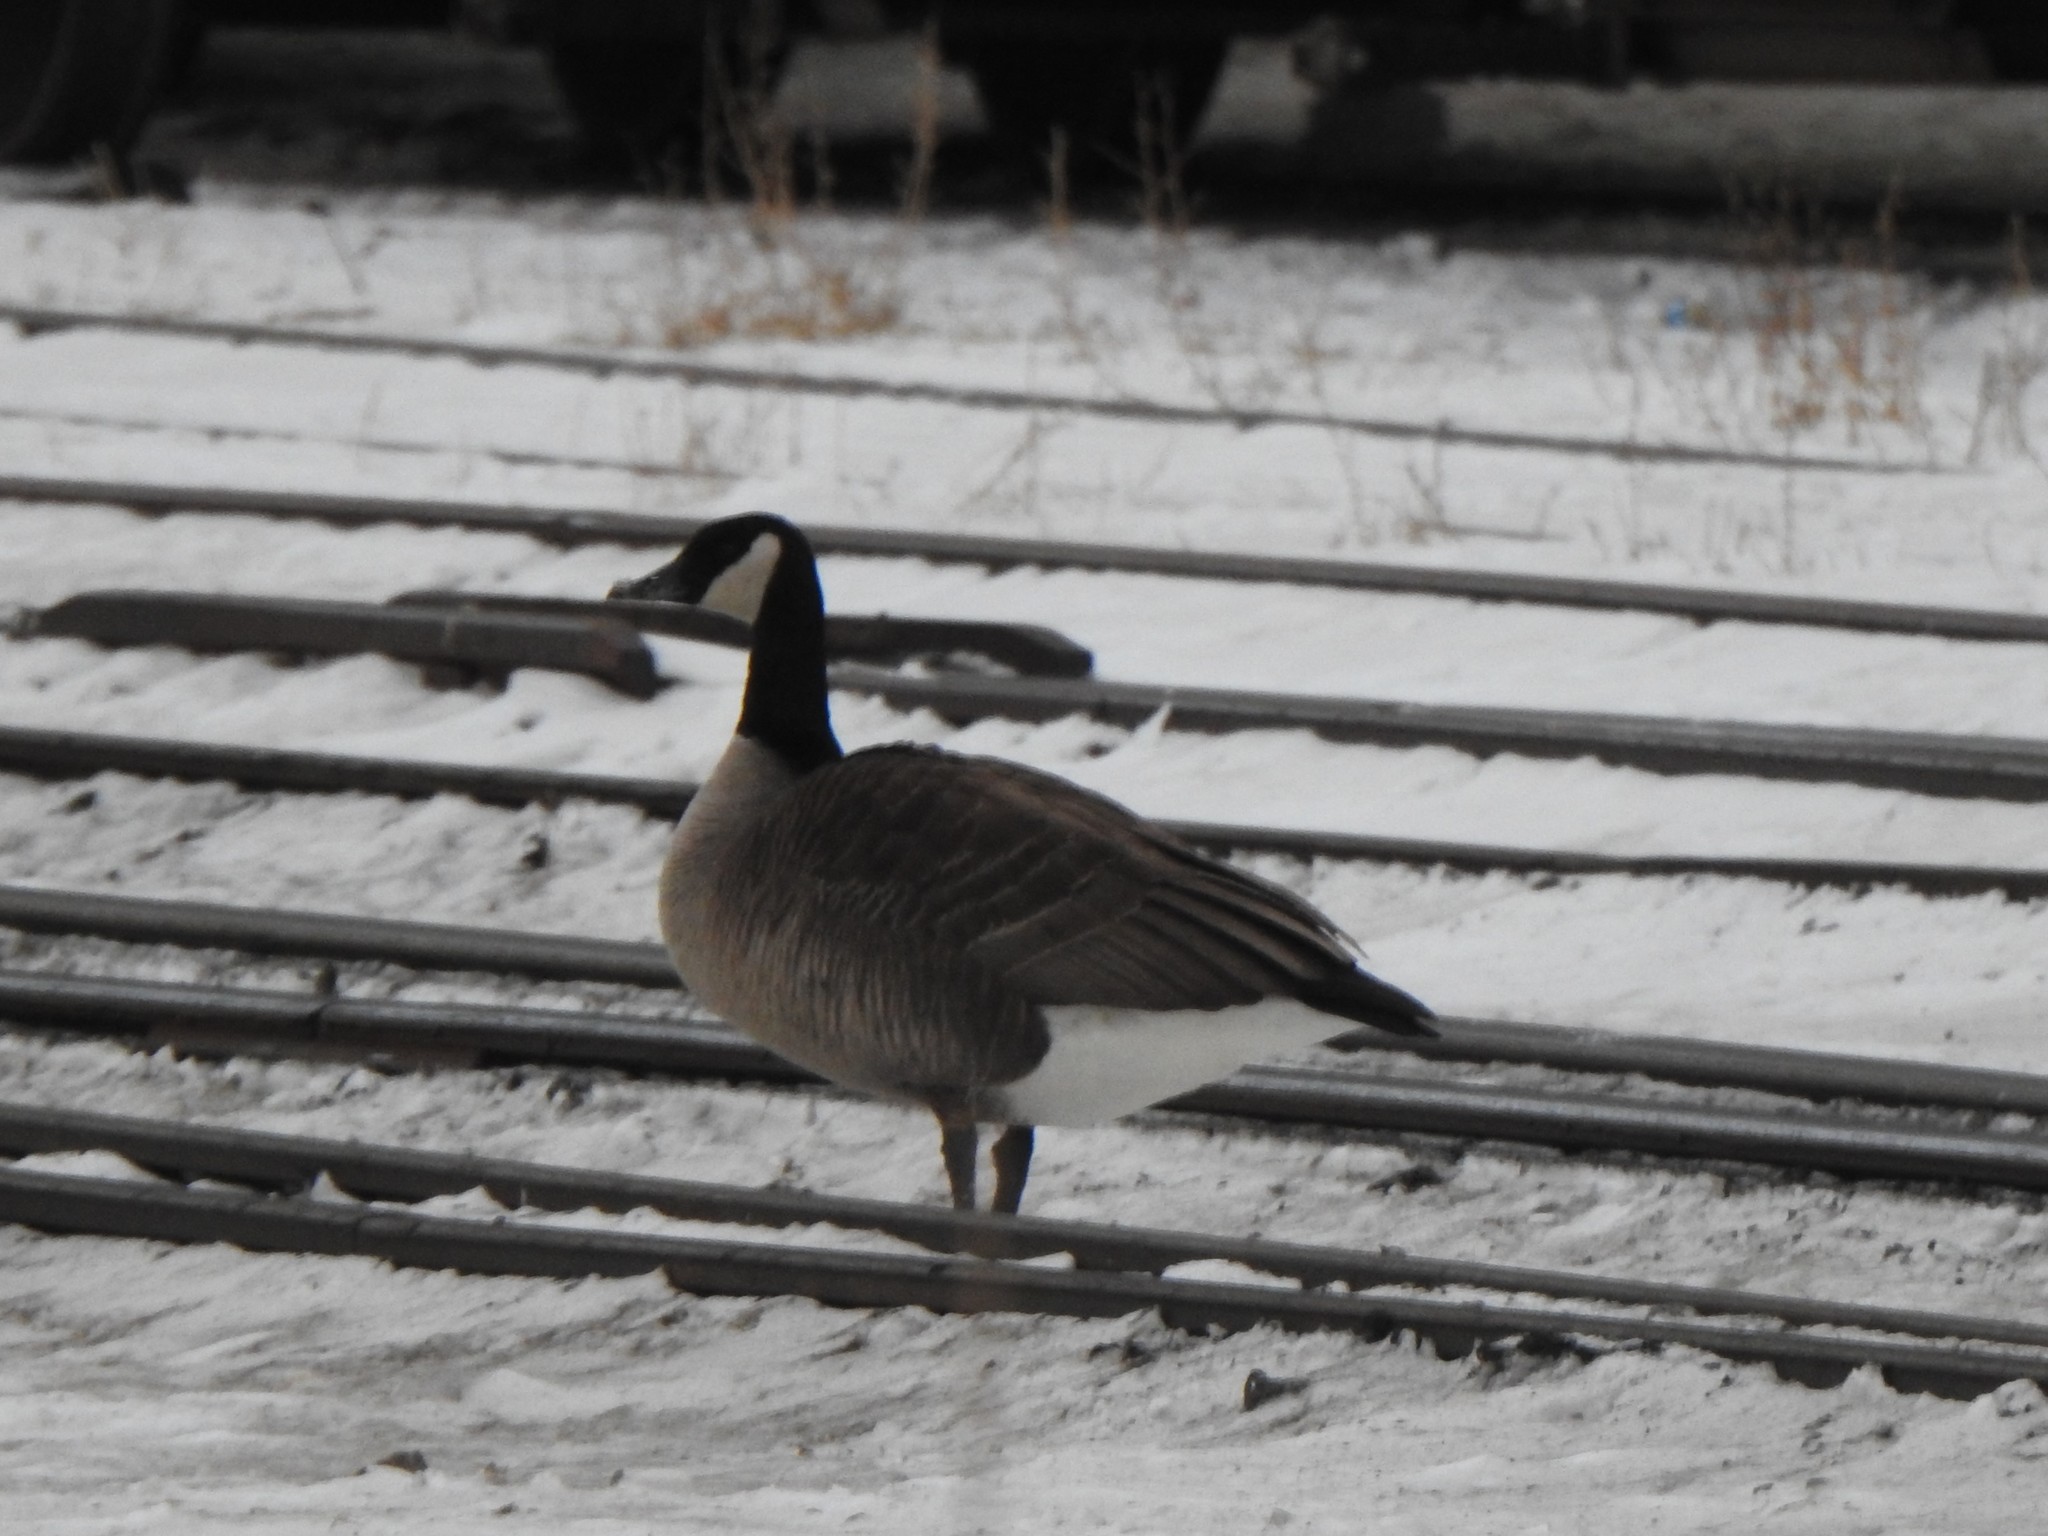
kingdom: Animalia
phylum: Chordata
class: Aves
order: Anseriformes
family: Anatidae
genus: Branta
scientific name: Branta canadensis
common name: Canada goose
